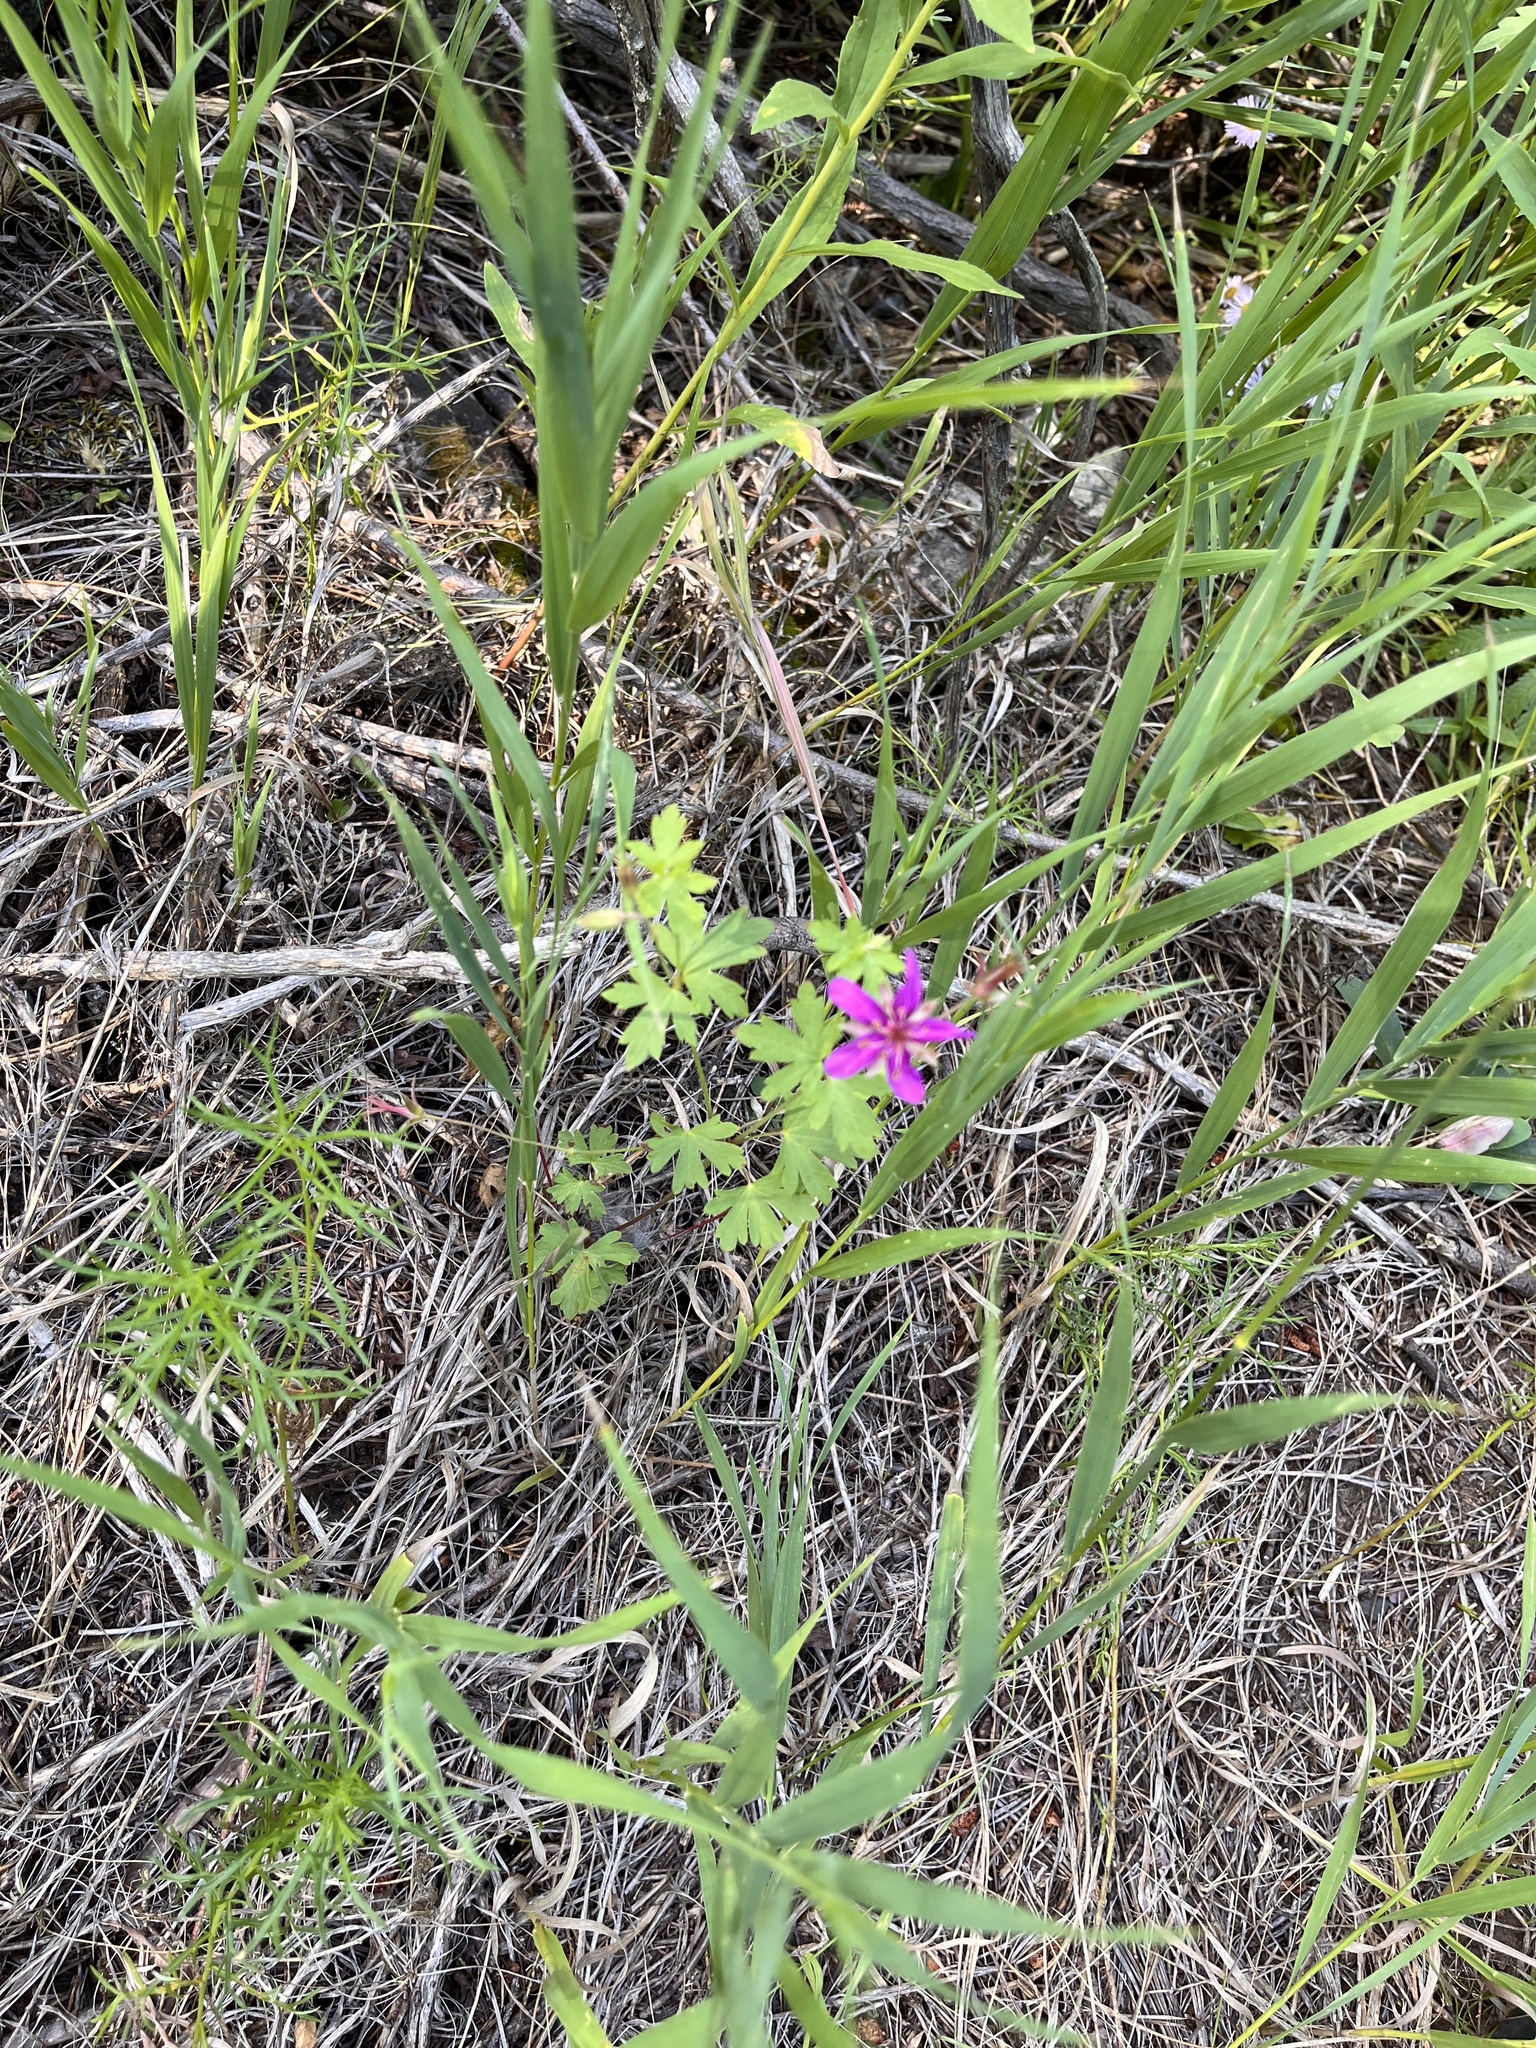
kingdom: Plantae
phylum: Tracheophyta
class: Magnoliopsida
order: Geraniales
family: Geraniaceae
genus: Geranium
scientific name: Geranium caespitosum
